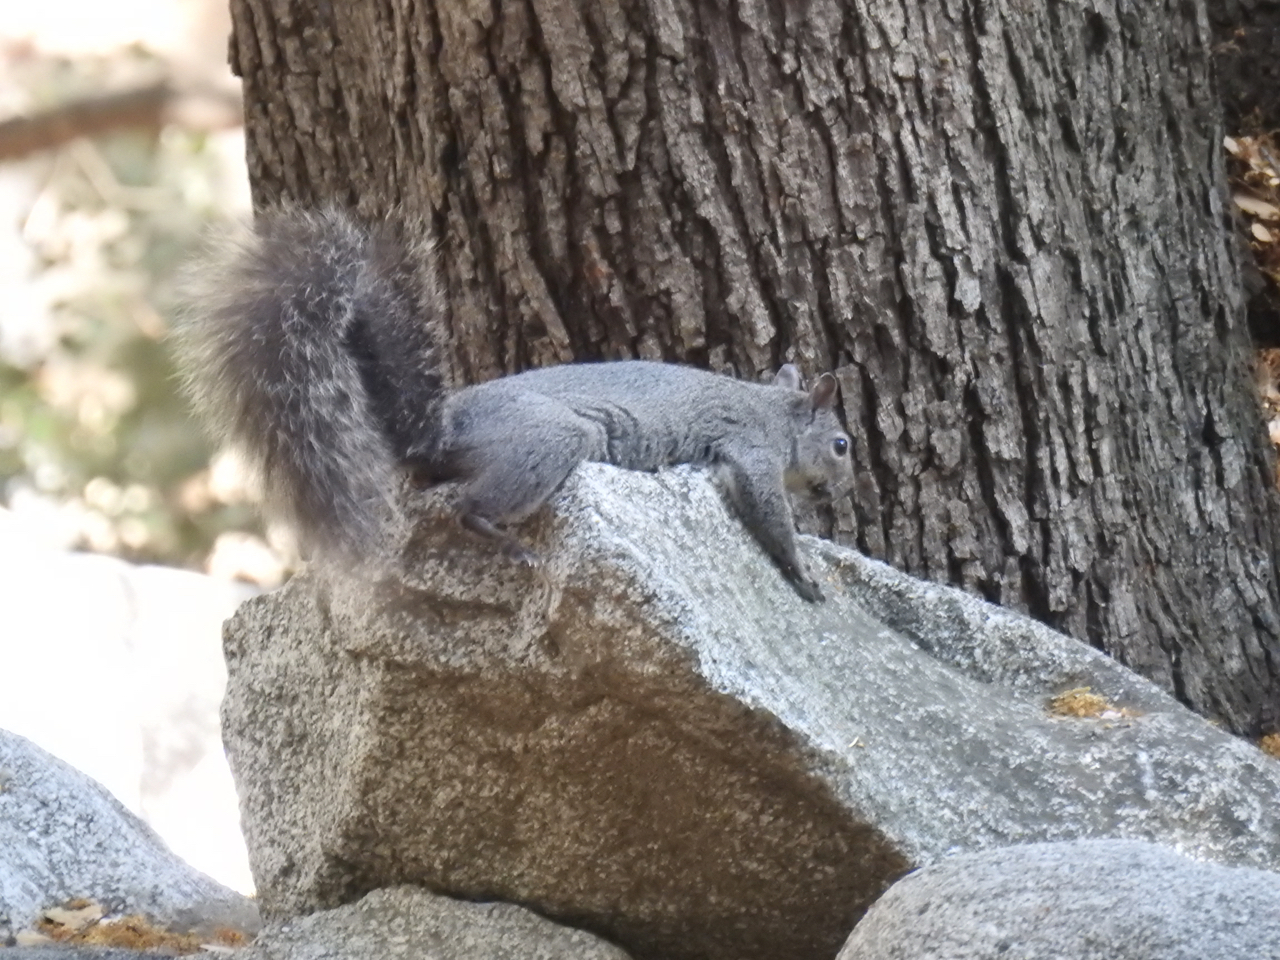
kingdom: Animalia
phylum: Chordata
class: Mammalia
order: Rodentia
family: Sciuridae
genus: Sciurus
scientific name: Sciurus griseus
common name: Western gray squirrel
